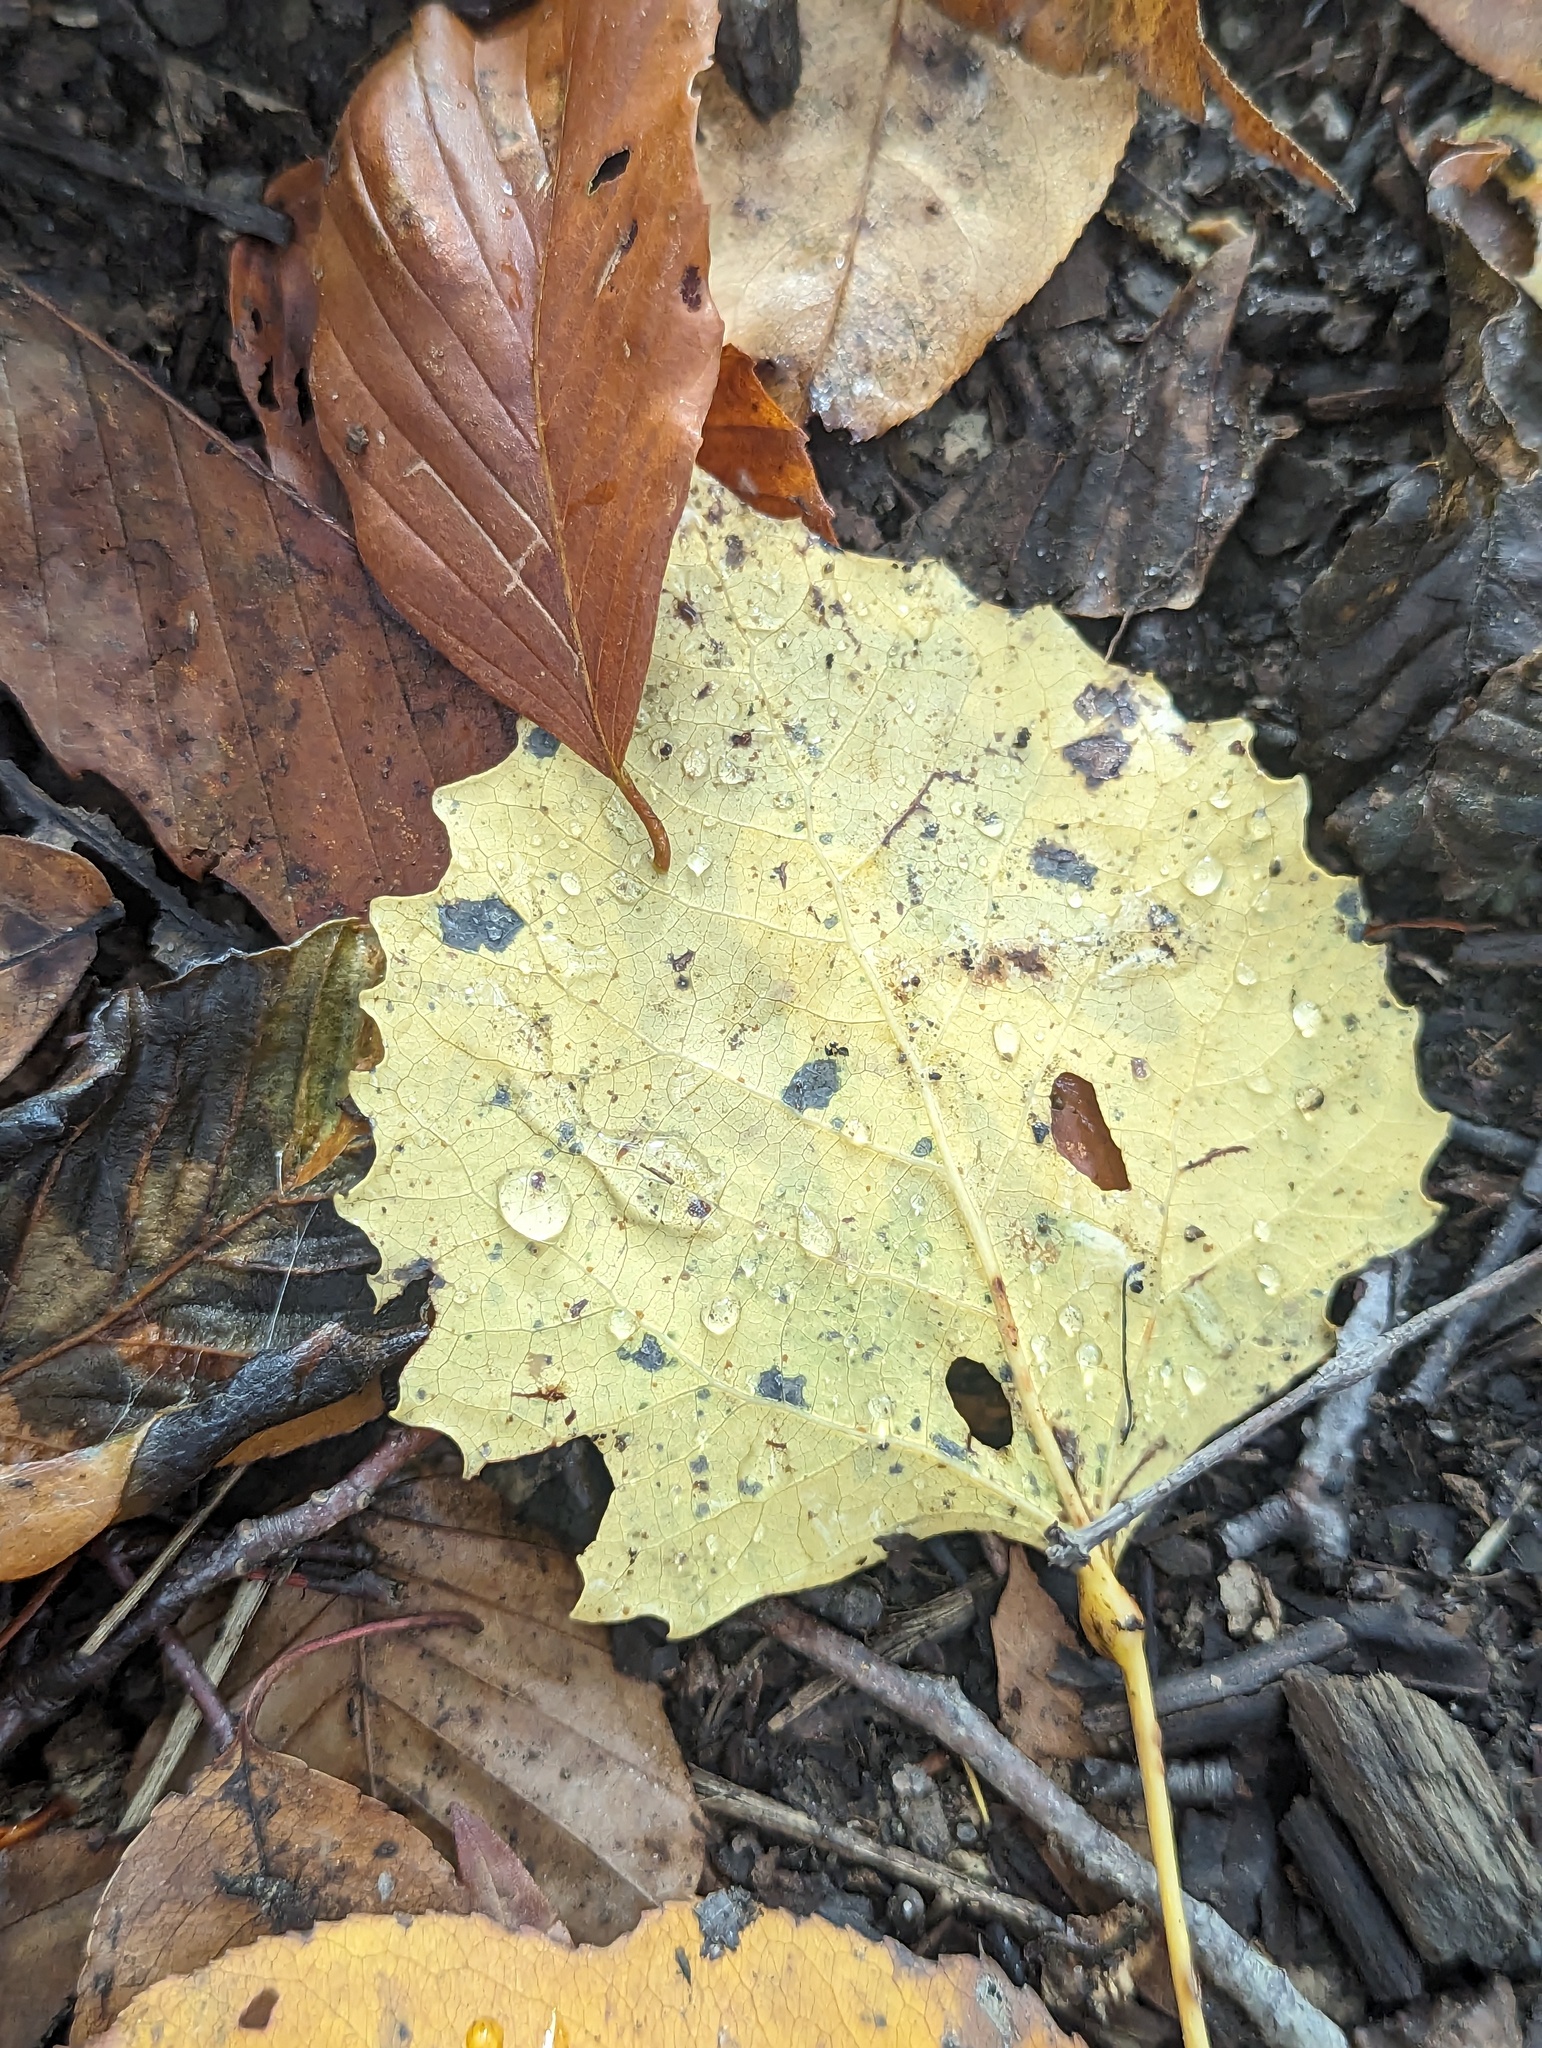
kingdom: Plantae
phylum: Tracheophyta
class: Magnoliopsida
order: Malpighiales
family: Salicaceae
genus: Populus
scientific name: Populus grandidentata
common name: Bigtooth aspen
